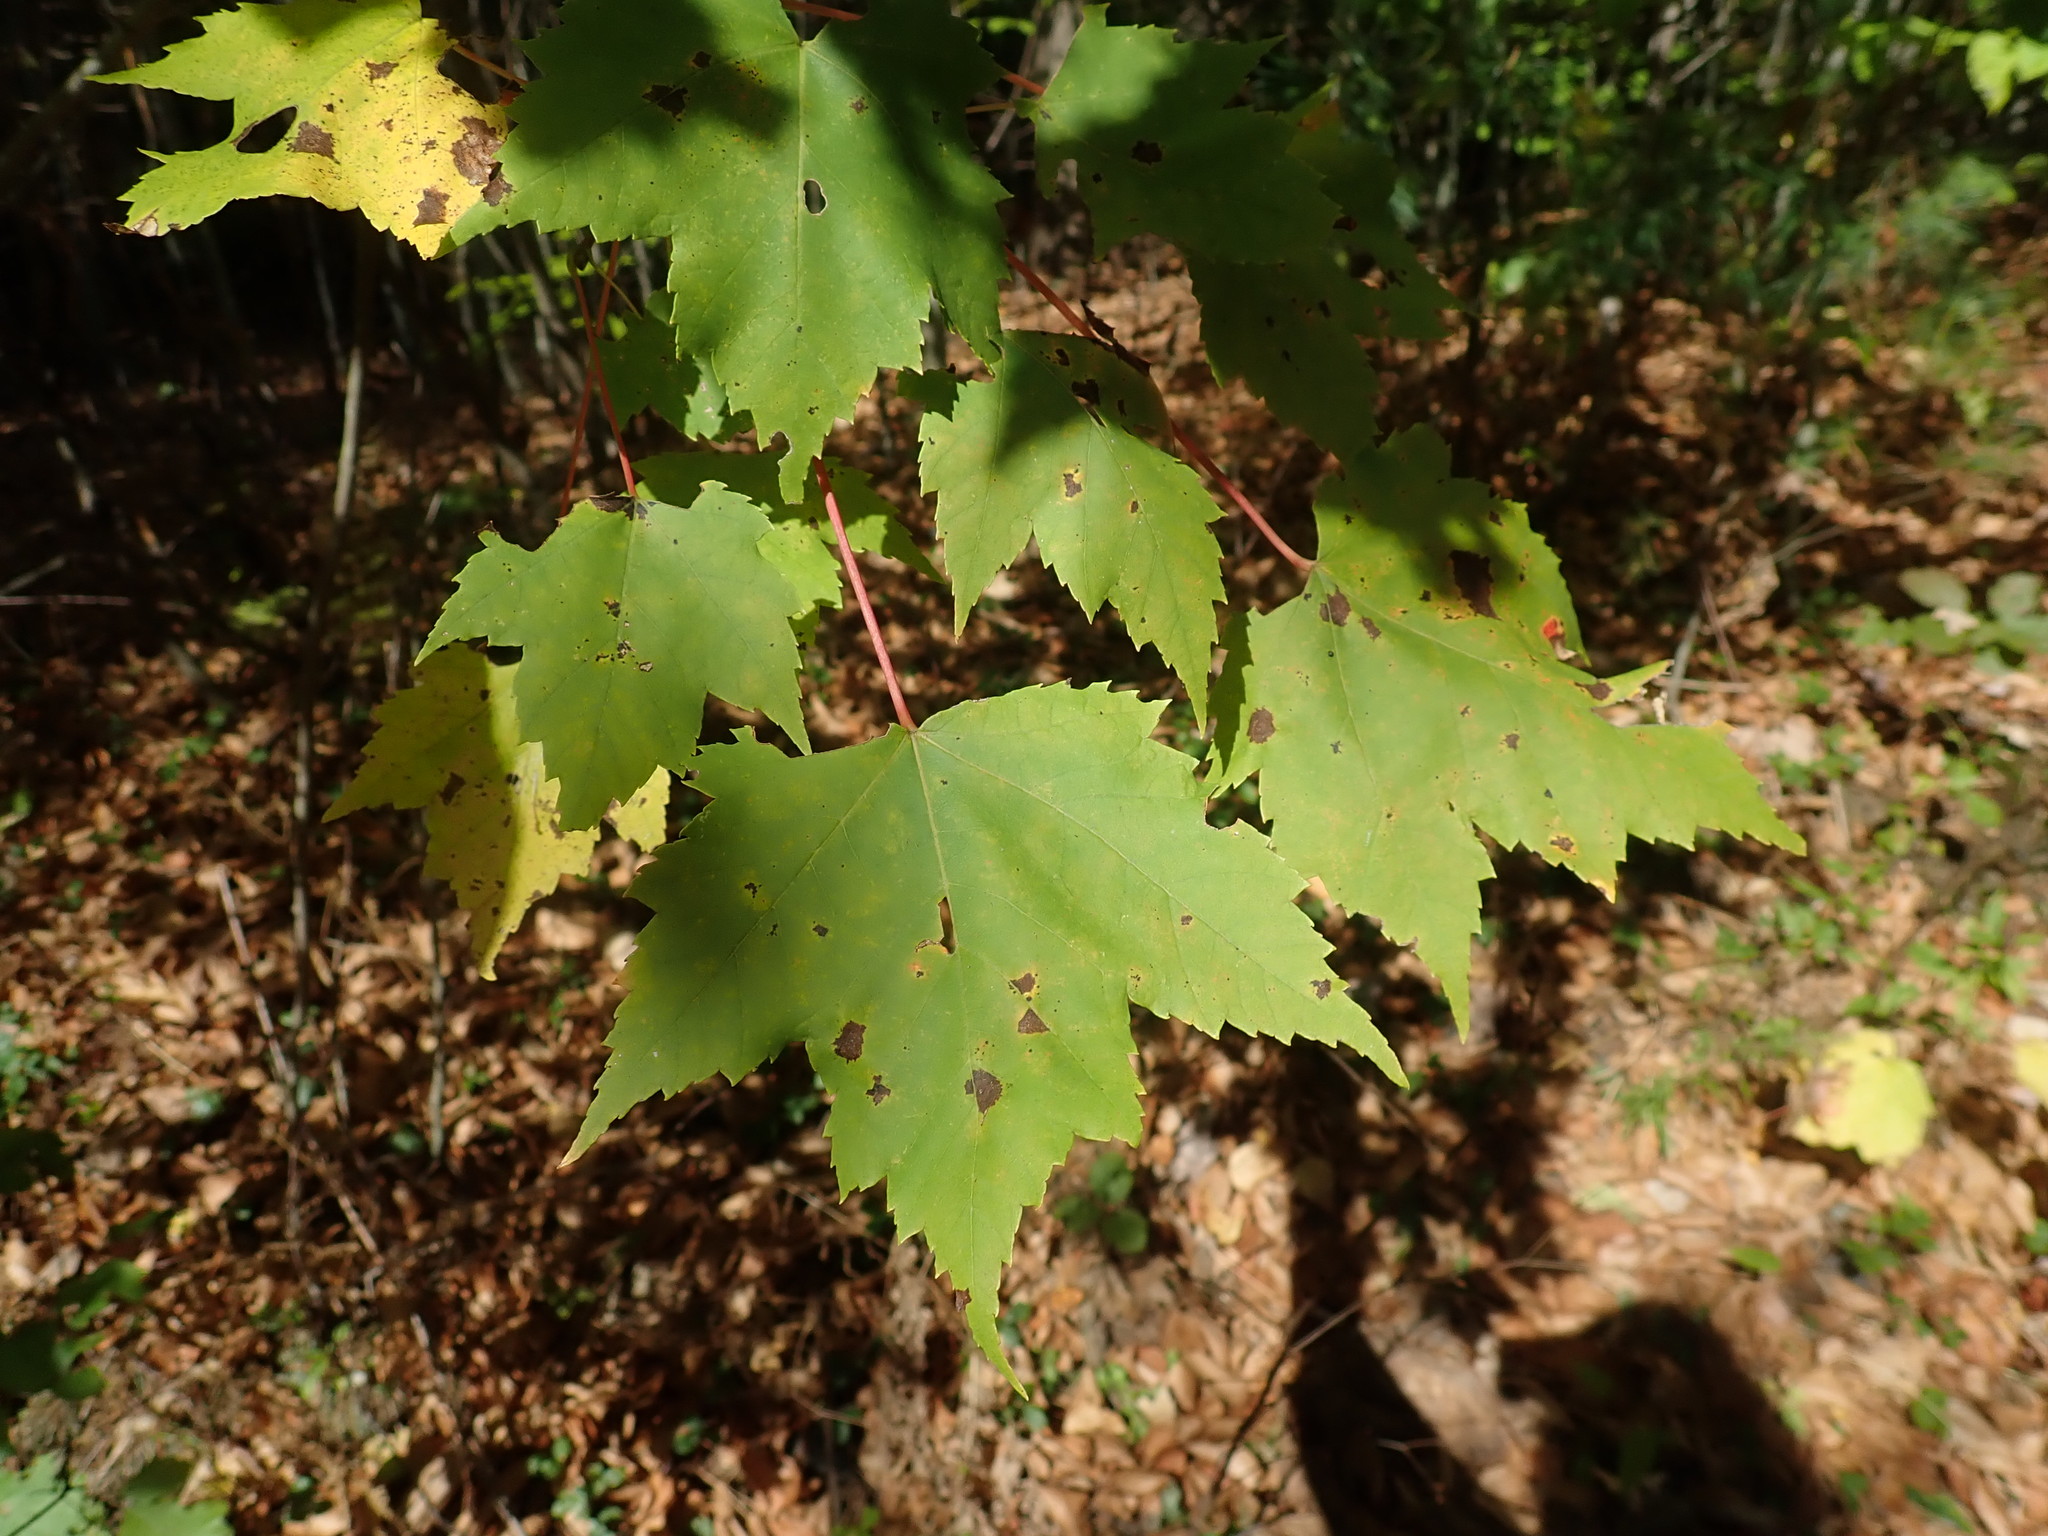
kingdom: Plantae
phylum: Tracheophyta
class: Magnoliopsida
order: Sapindales
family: Sapindaceae
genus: Acer
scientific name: Acer rubrum
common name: Red maple
